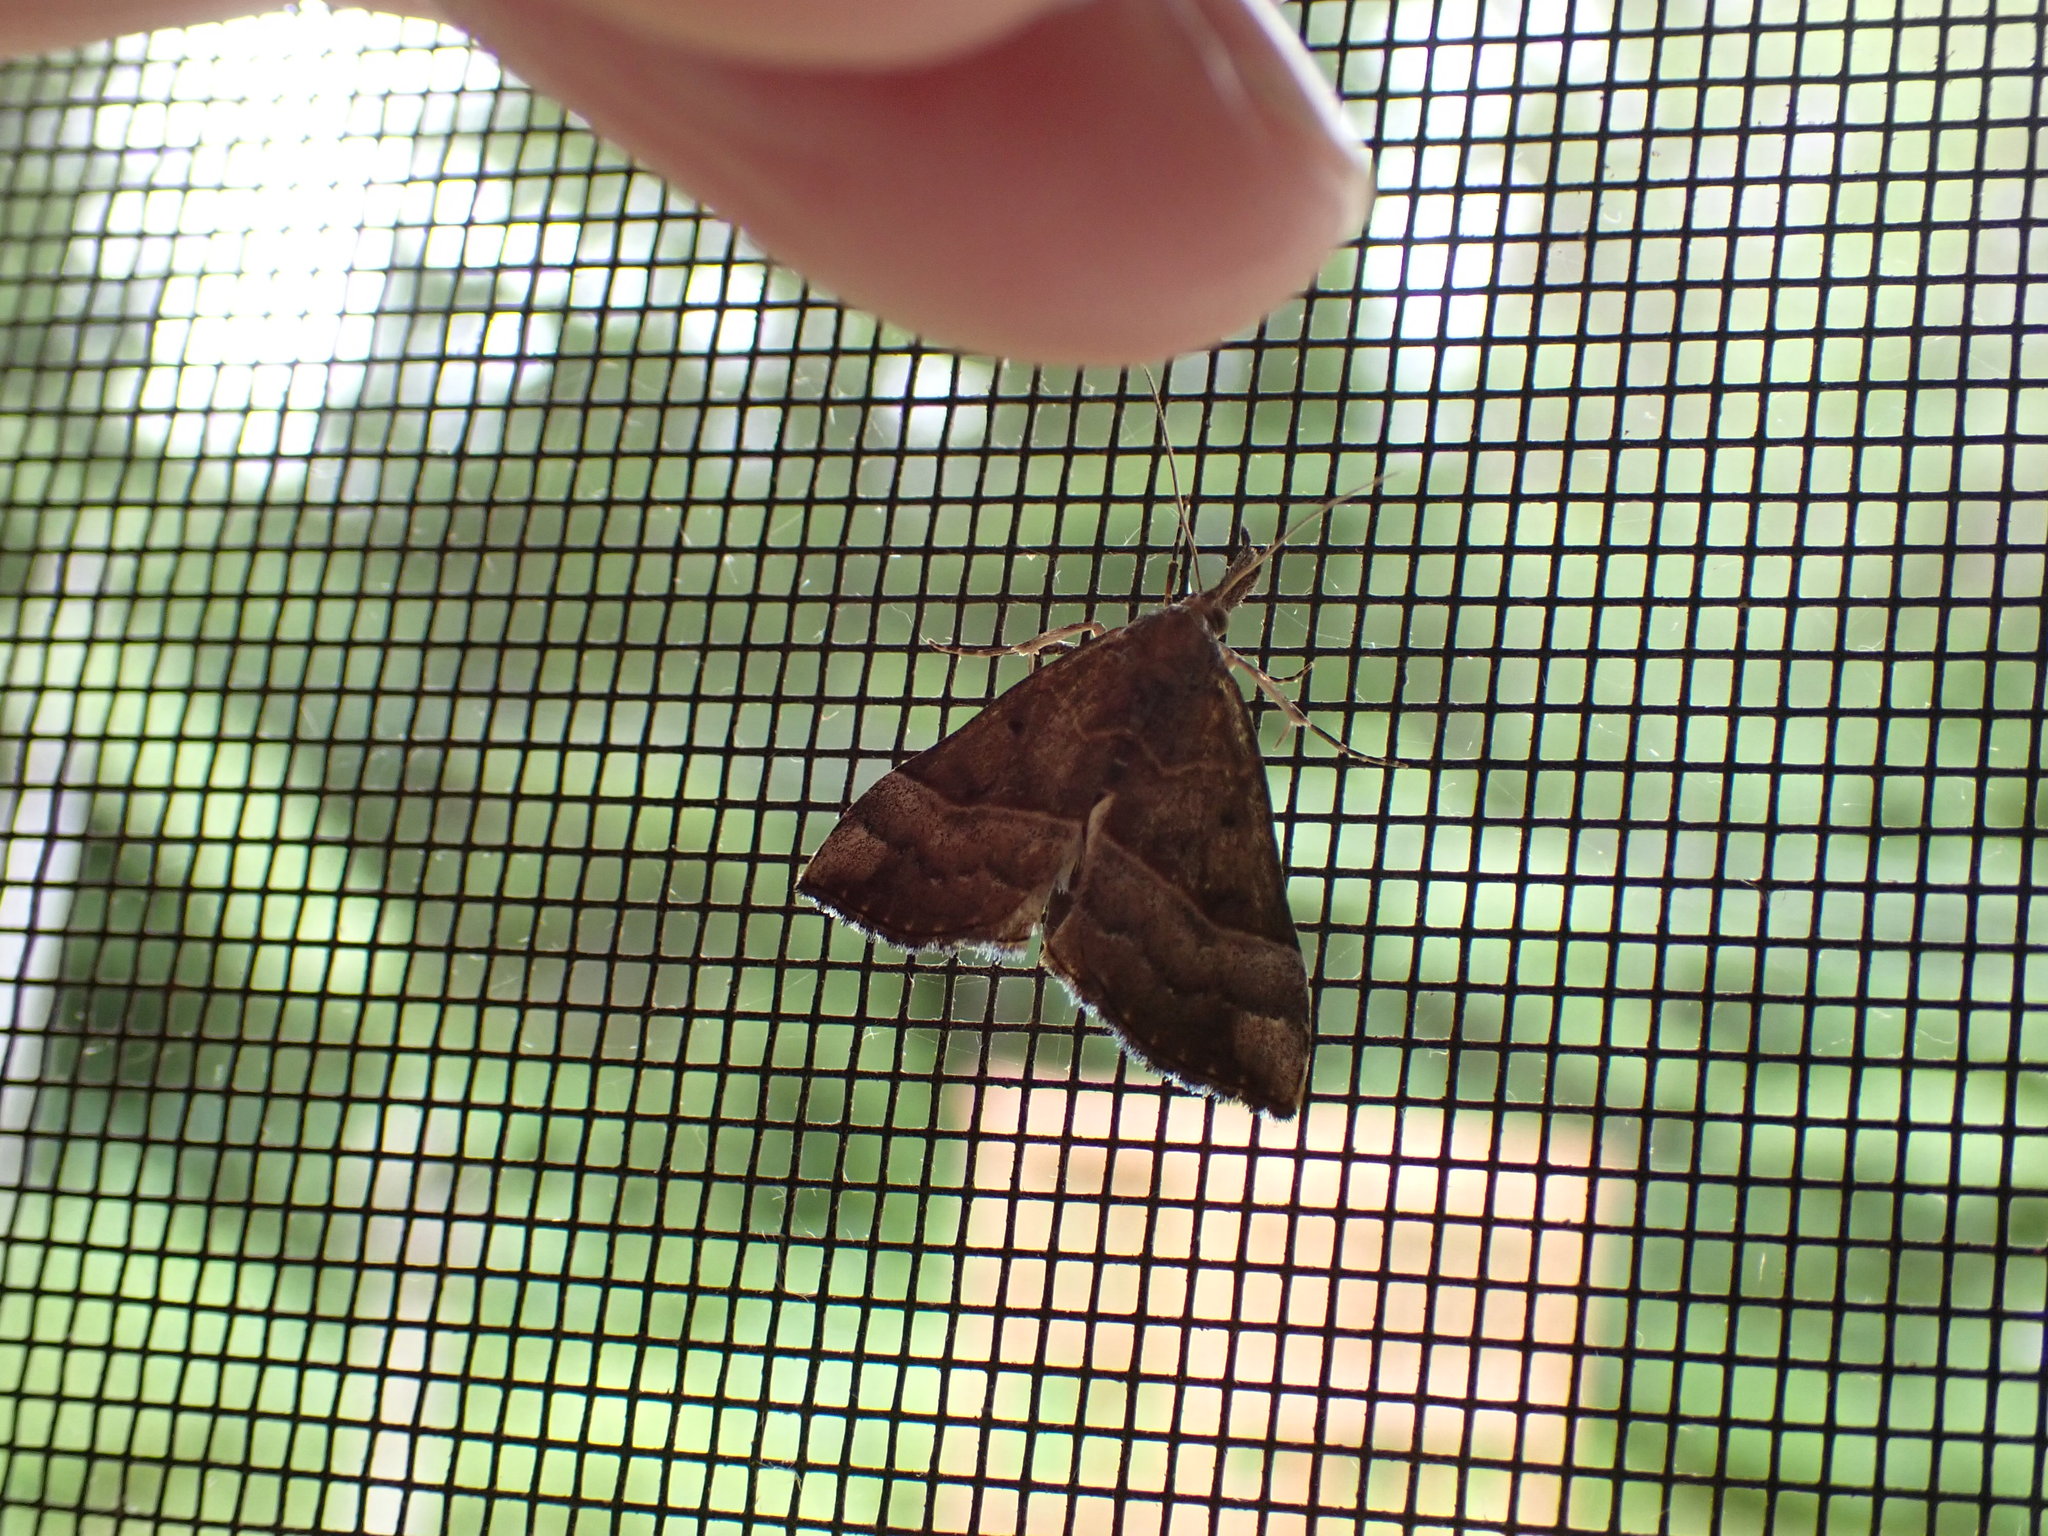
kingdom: Animalia
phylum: Arthropoda
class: Insecta
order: Lepidoptera
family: Erebidae
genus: Hypena
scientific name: Hypena eductalis
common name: Red-footed snout
